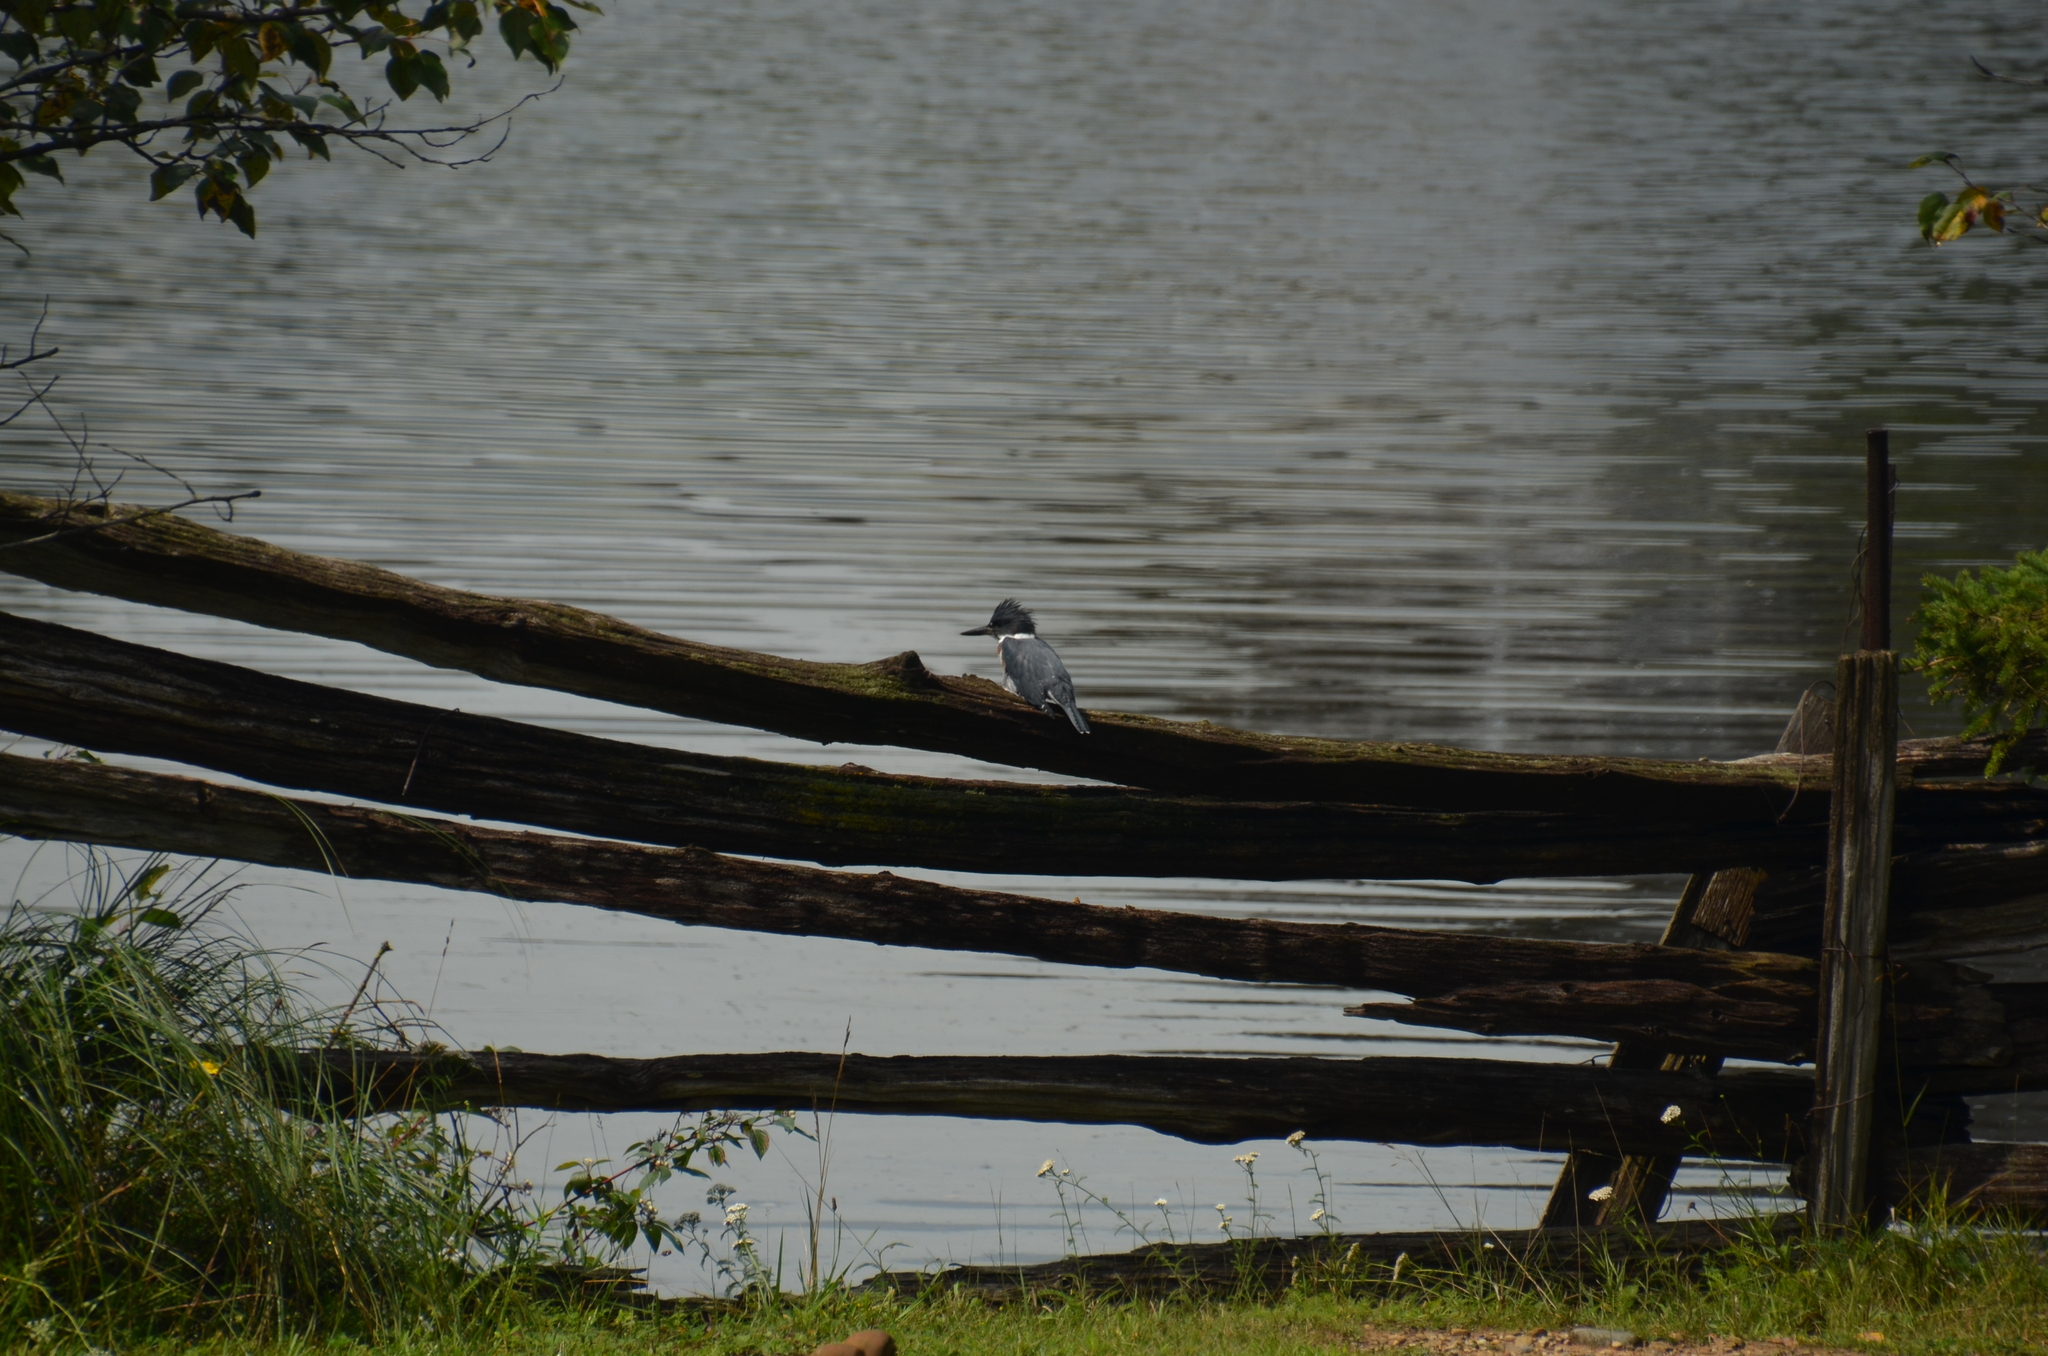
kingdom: Animalia
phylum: Chordata
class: Aves
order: Coraciiformes
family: Alcedinidae
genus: Megaceryle
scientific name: Megaceryle alcyon
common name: Belted kingfisher
